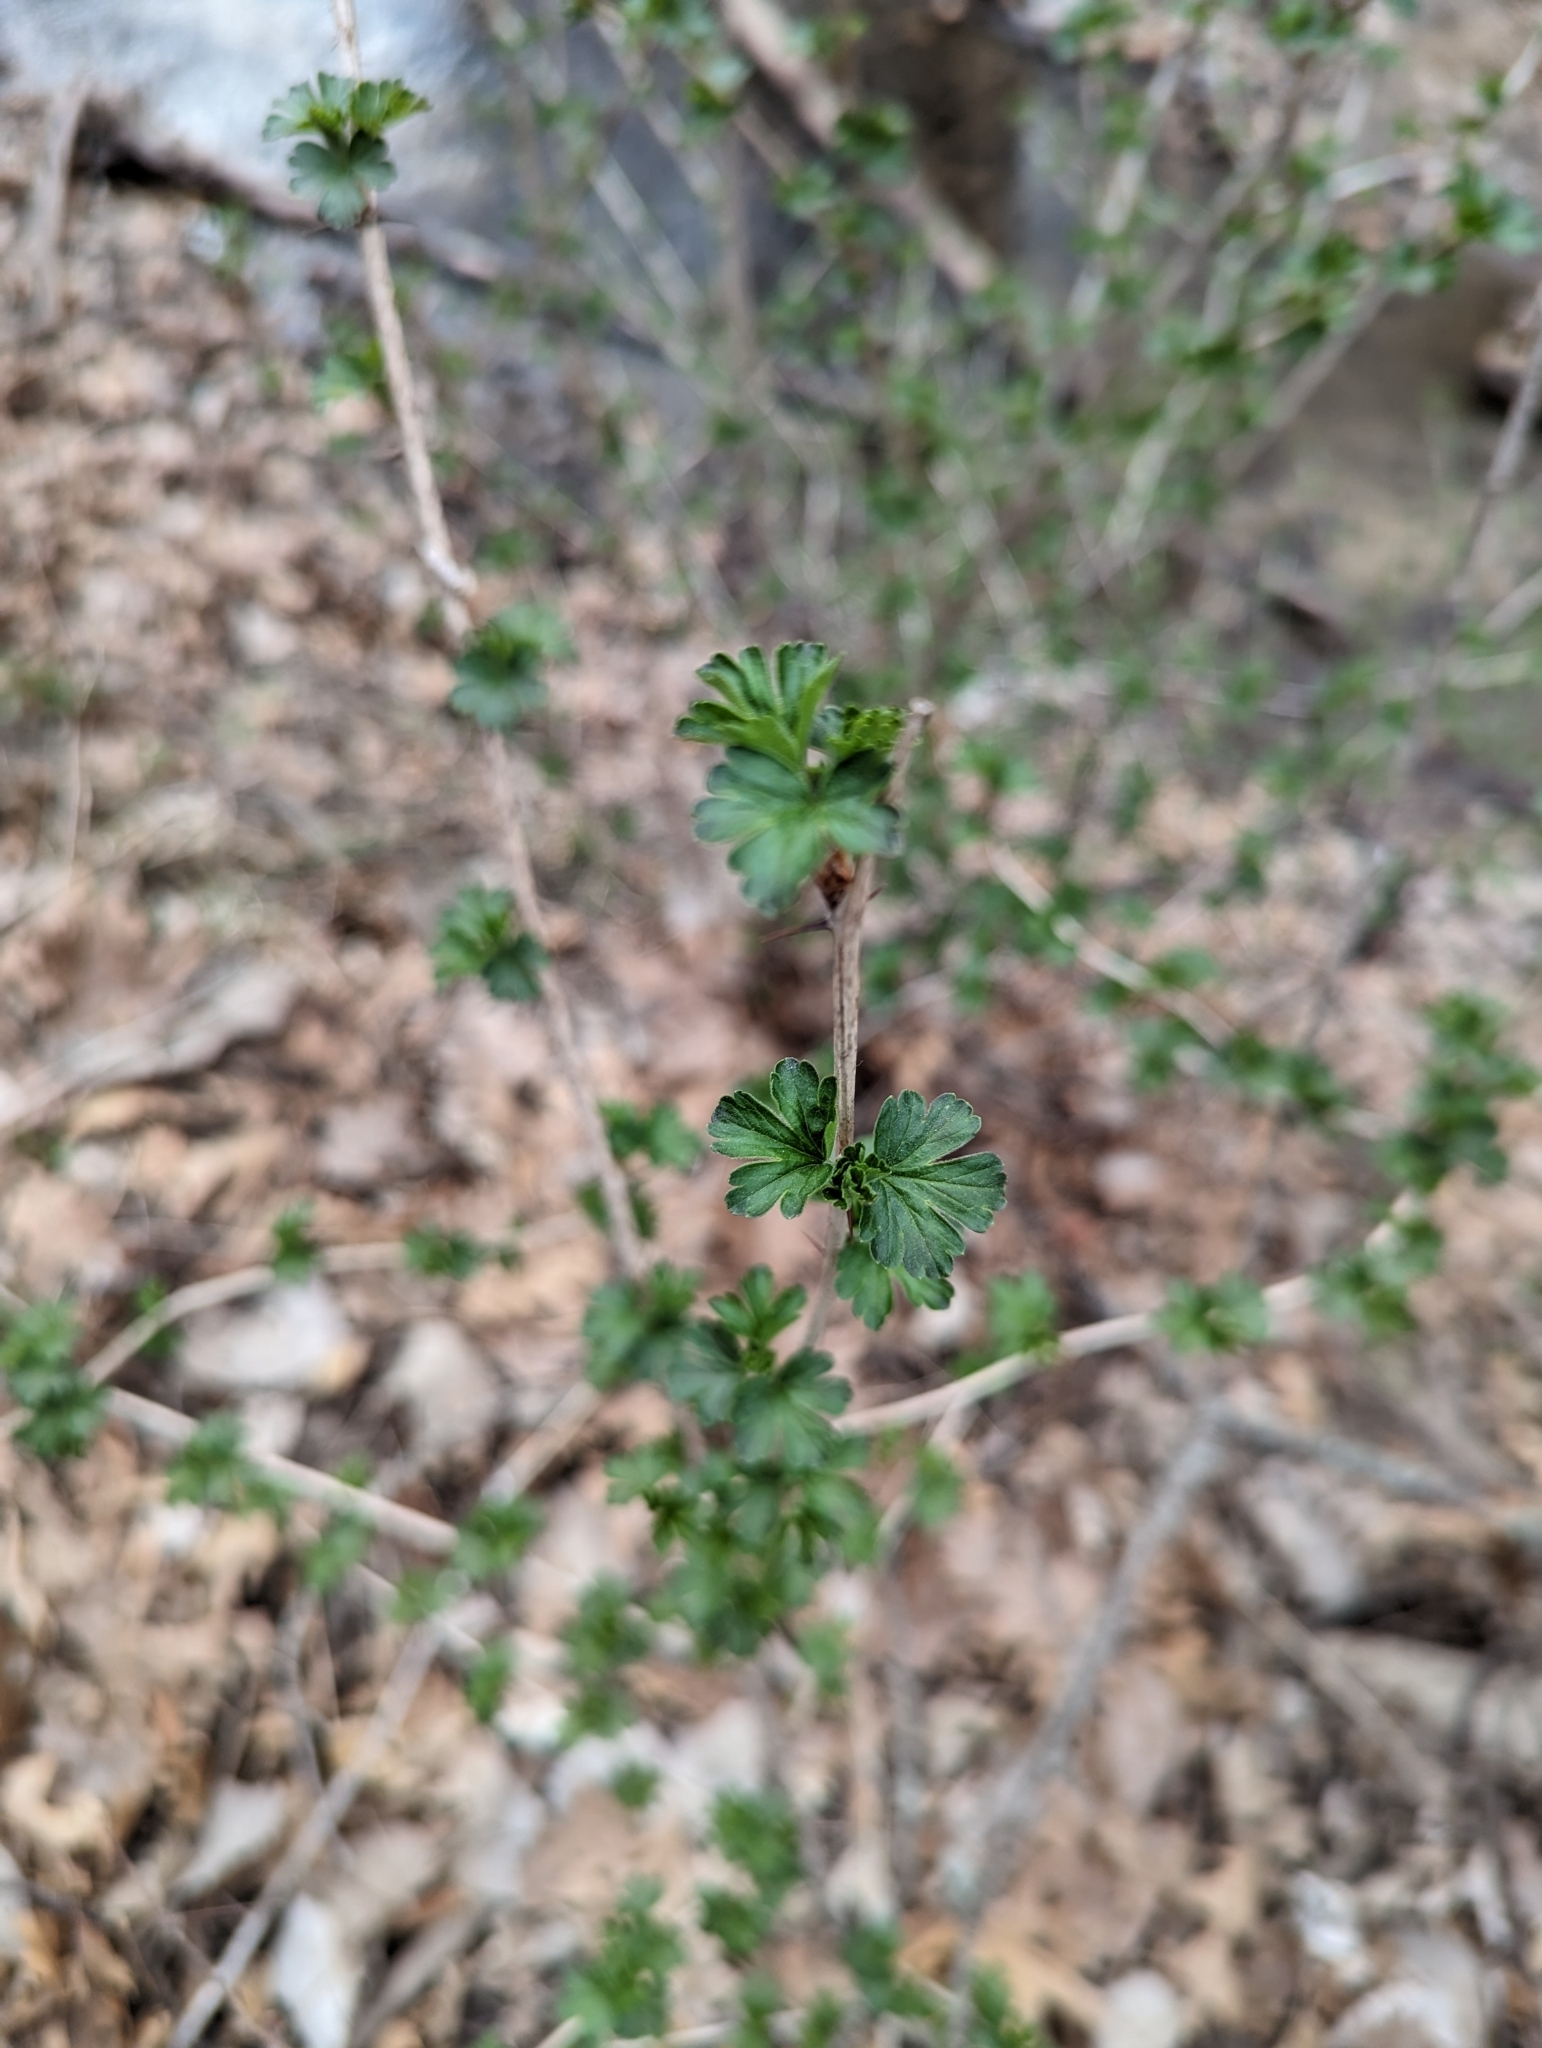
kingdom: Plantae
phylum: Tracheophyta
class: Magnoliopsida
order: Saxifragales
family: Grossulariaceae
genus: Ribes
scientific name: Ribes missouriense
